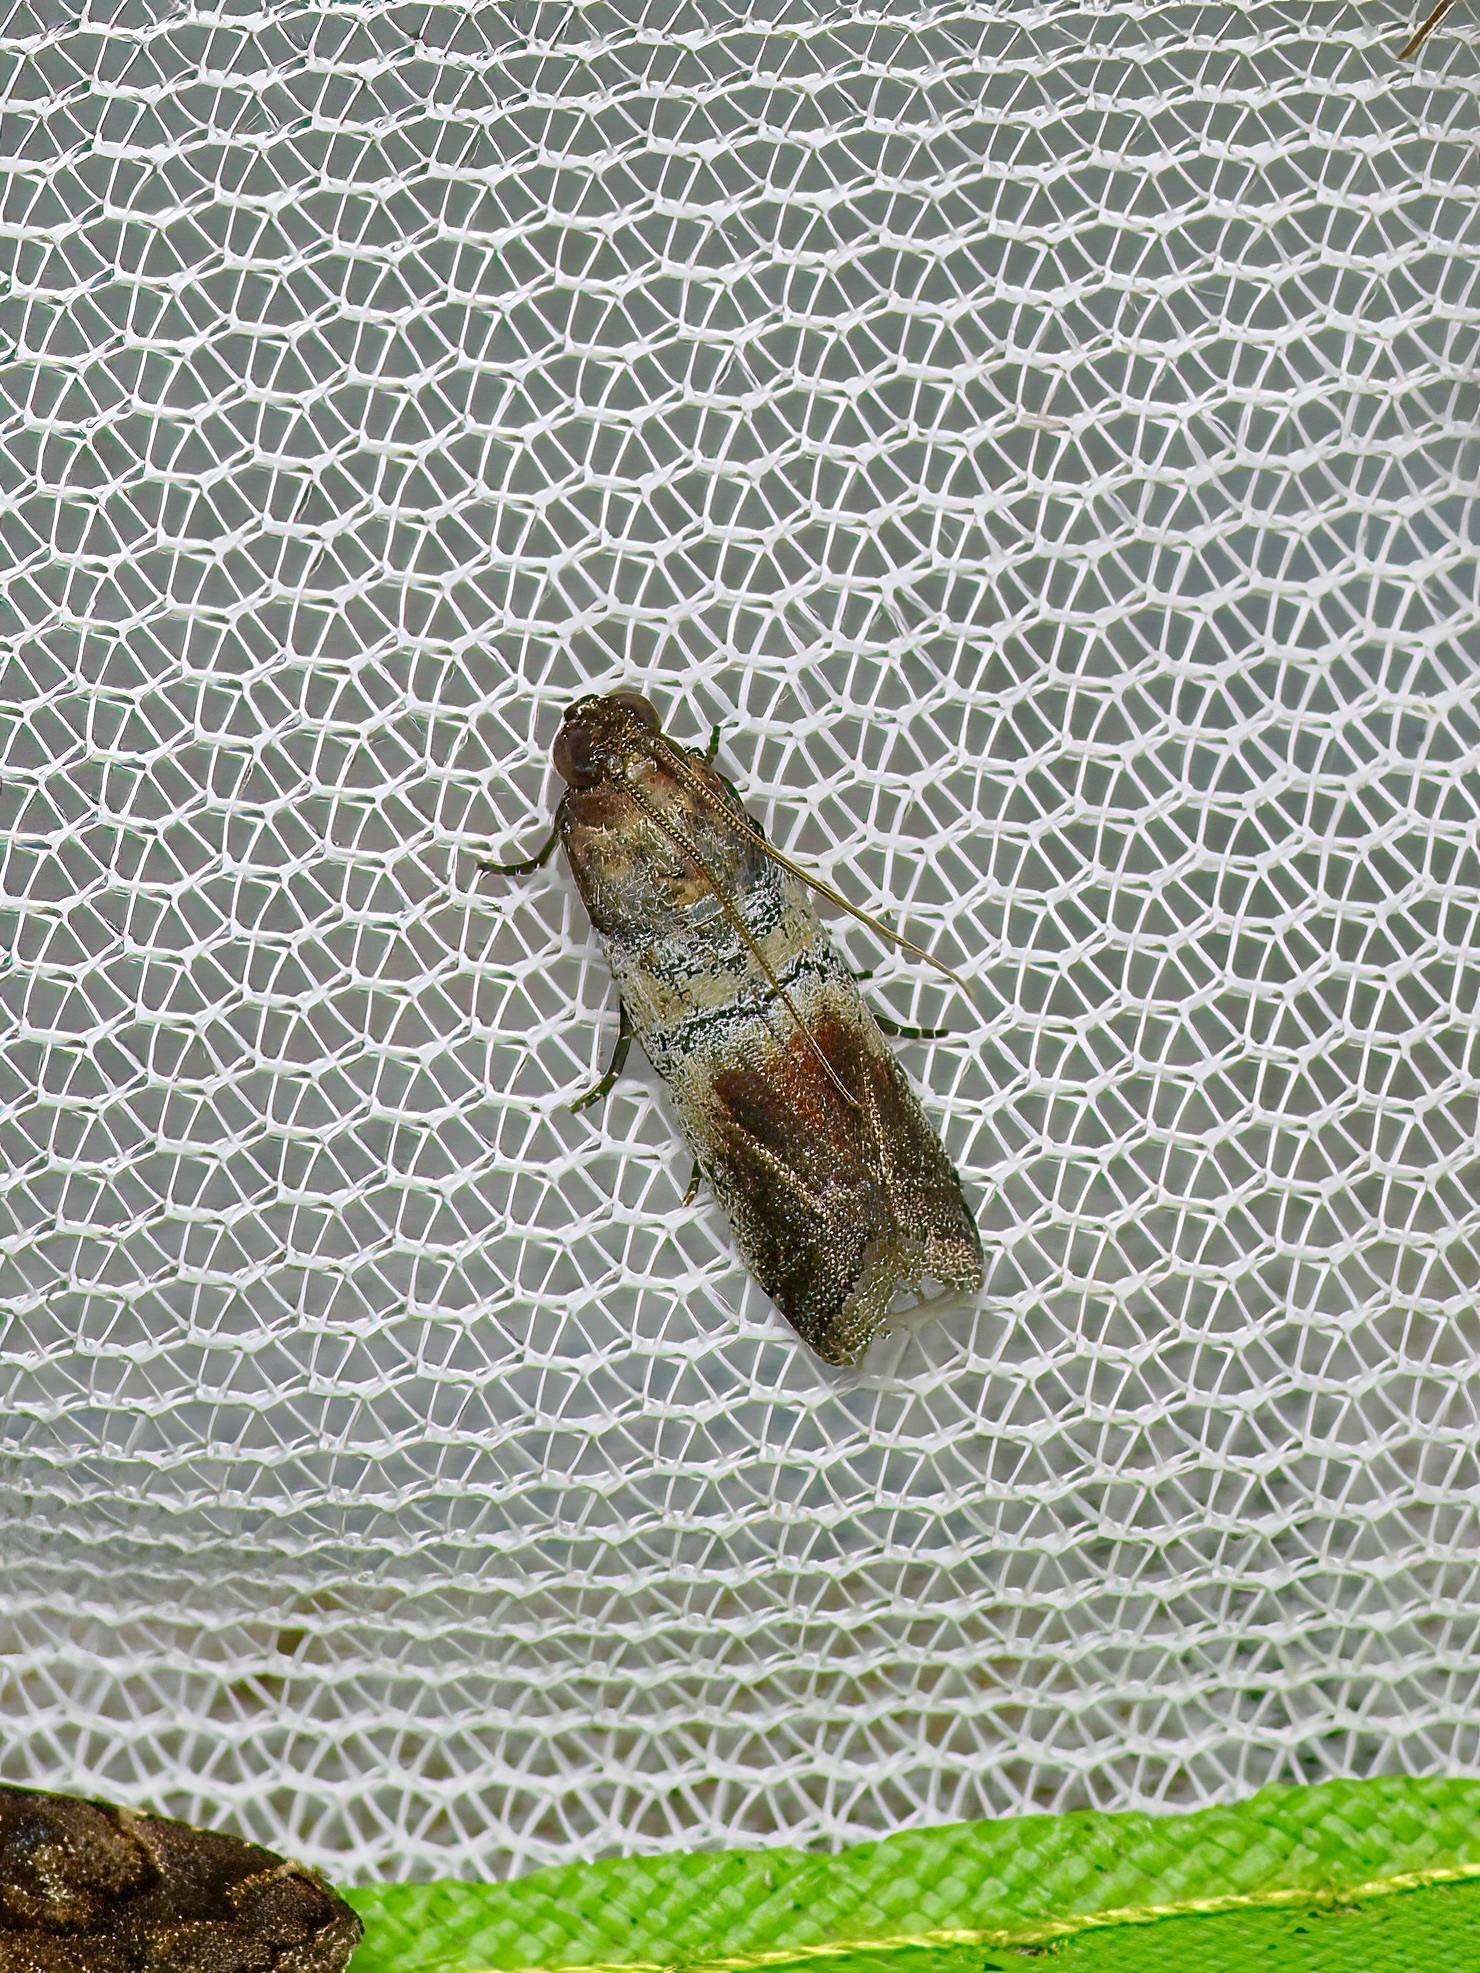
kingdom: Animalia
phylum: Arthropoda
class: Insecta
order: Lepidoptera
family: Pyralidae
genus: Chararica
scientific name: Chararica hystriculella
